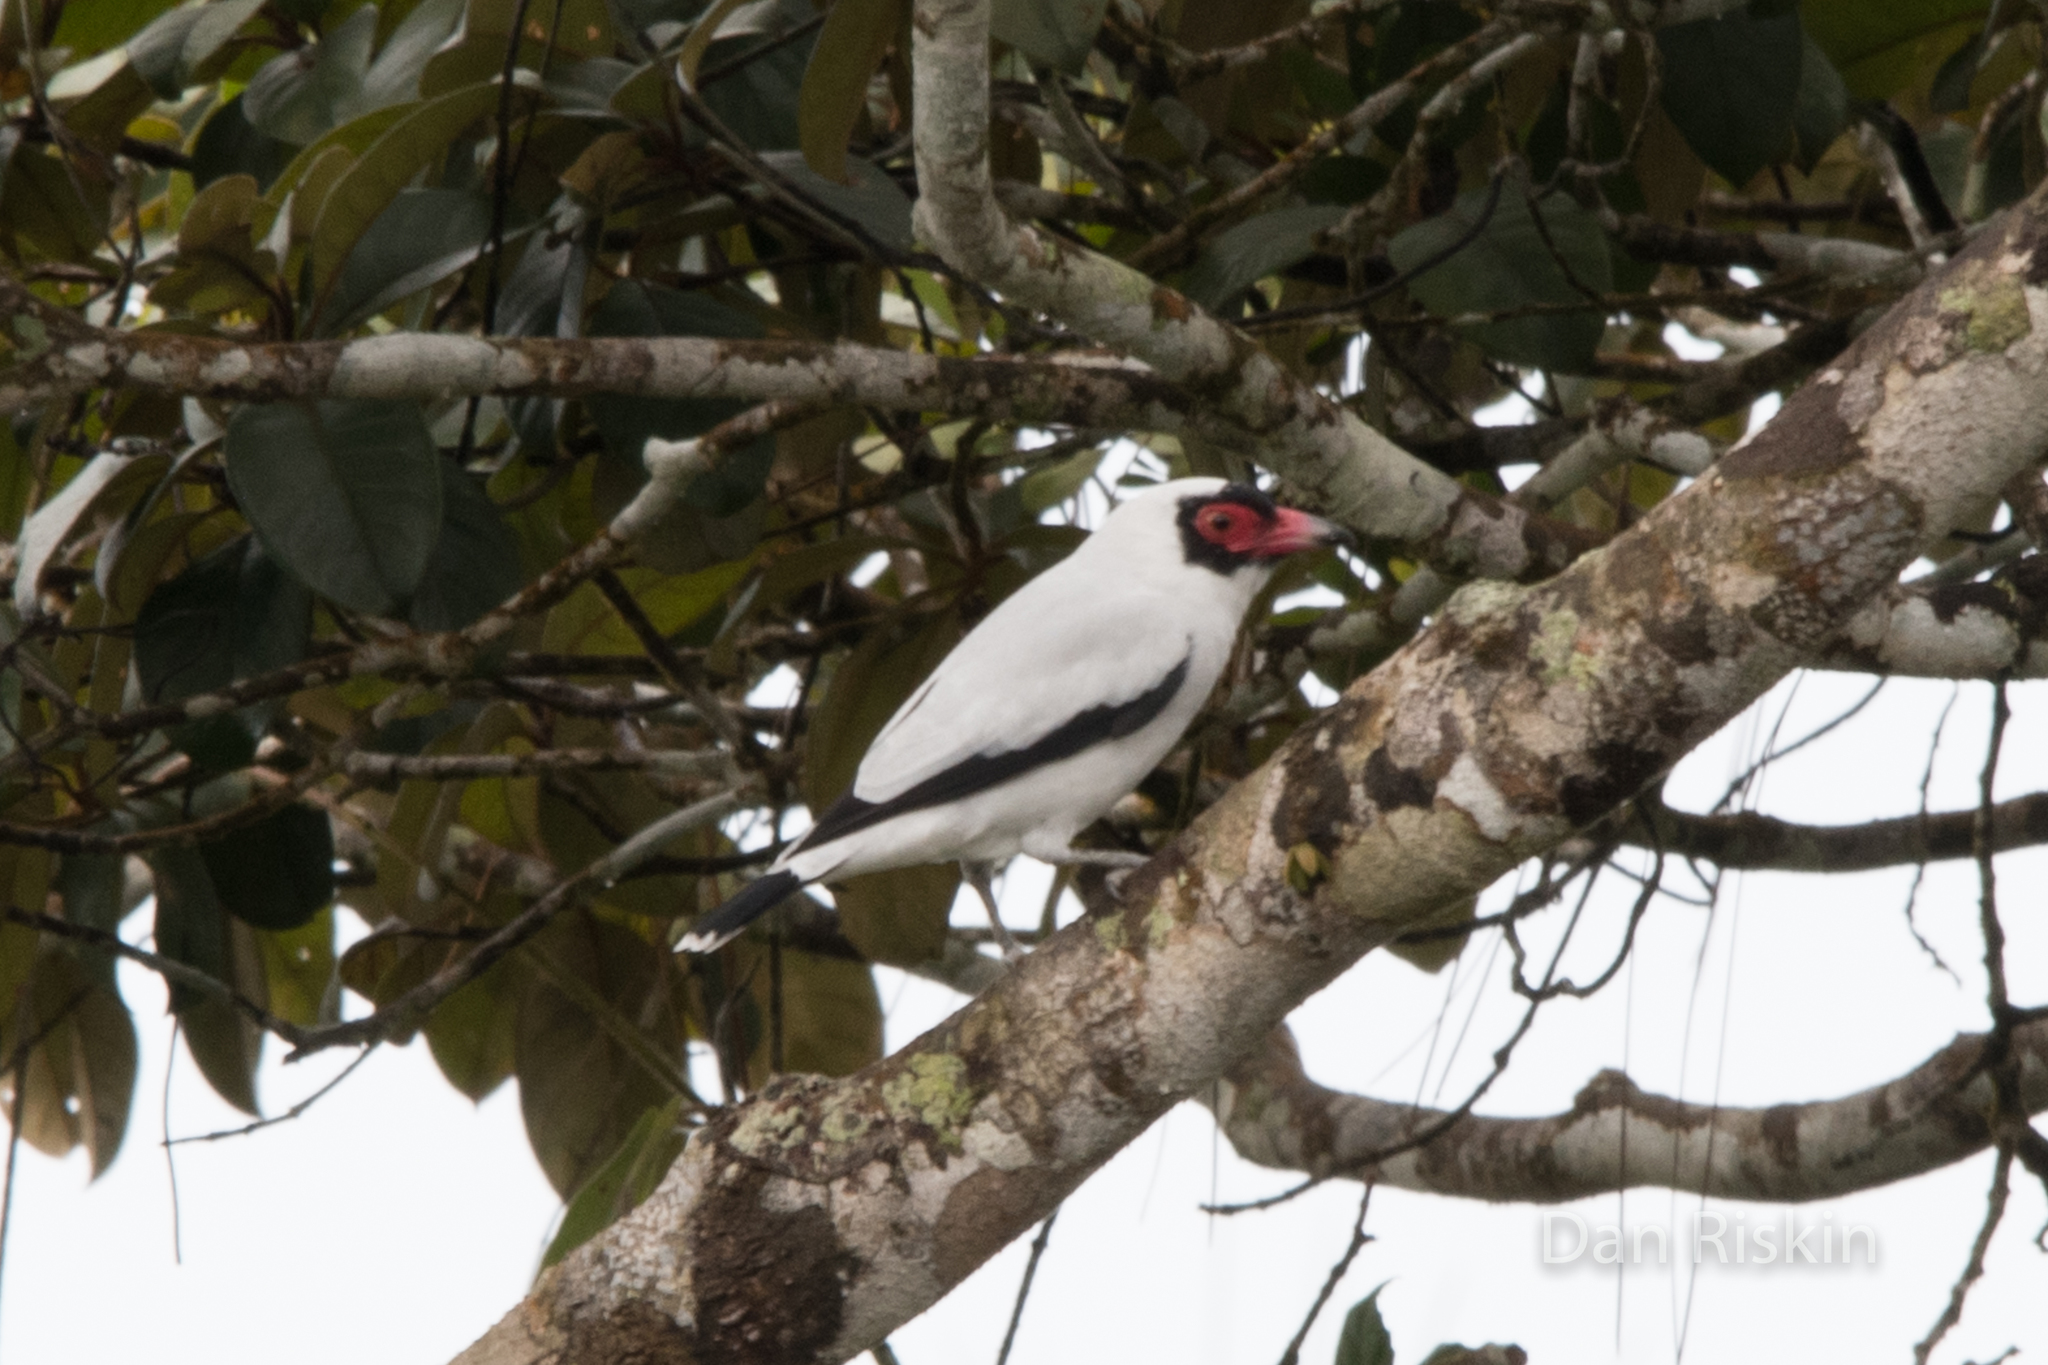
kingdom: Animalia
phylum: Chordata
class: Aves
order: Passeriformes
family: Cotingidae
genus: Tityra
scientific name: Tityra semifasciata
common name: Masked tityra
